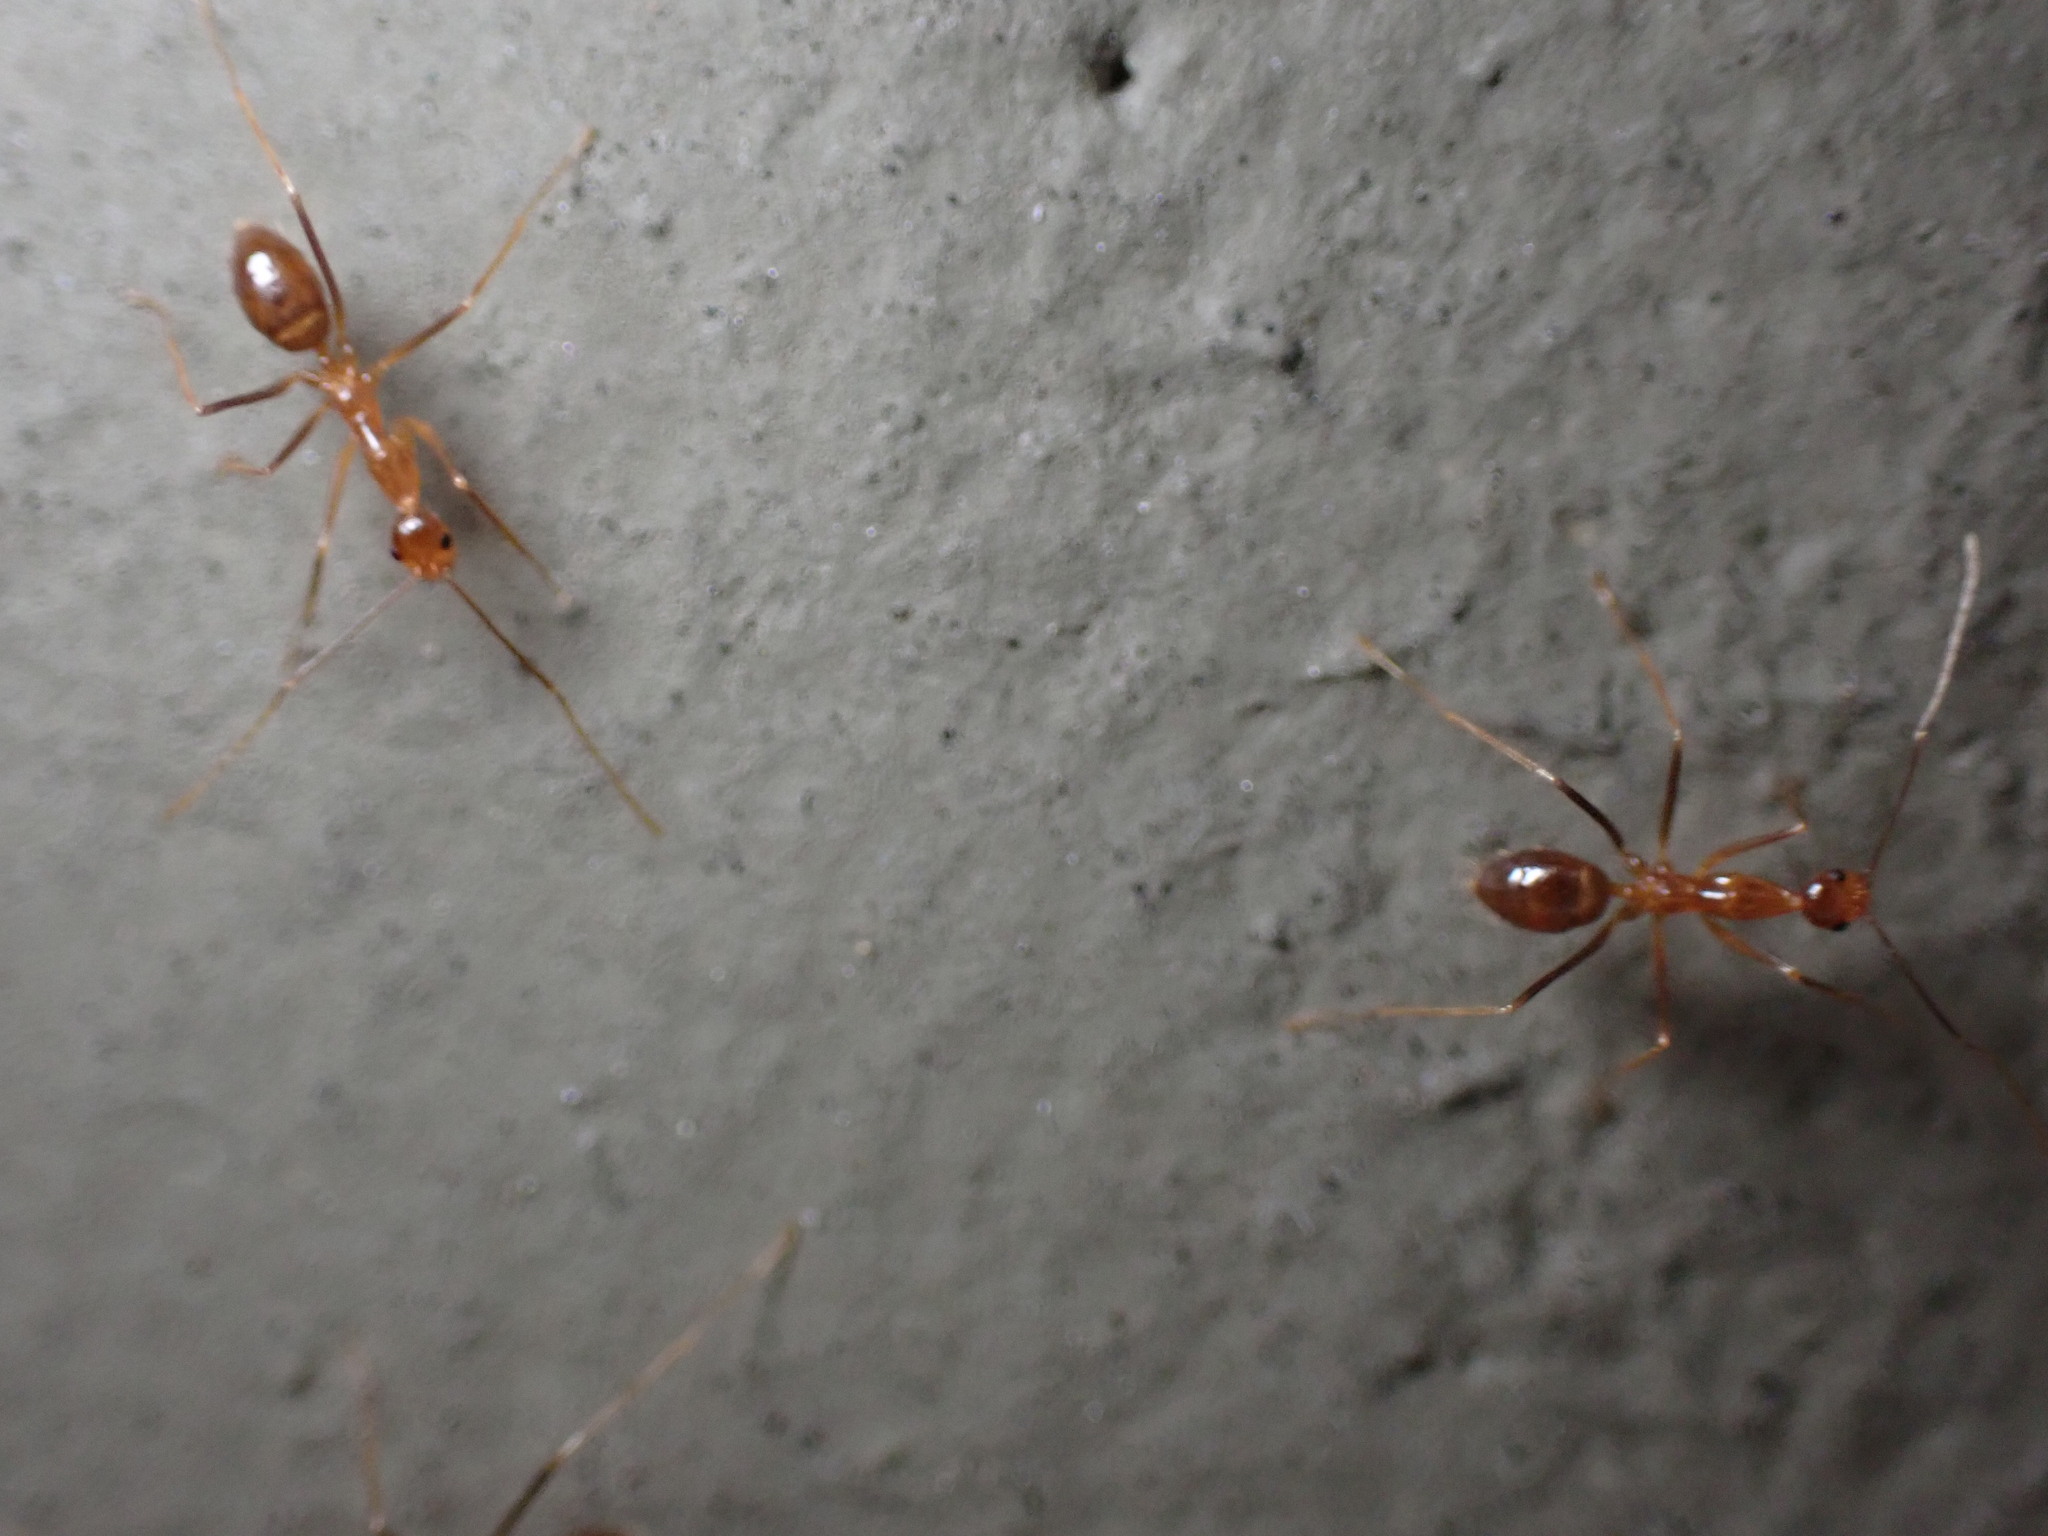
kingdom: Animalia
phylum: Arthropoda
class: Insecta
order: Hymenoptera
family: Formicidae
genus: Anoplolepis
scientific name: Anoplolepis gracilipes
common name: Ant
